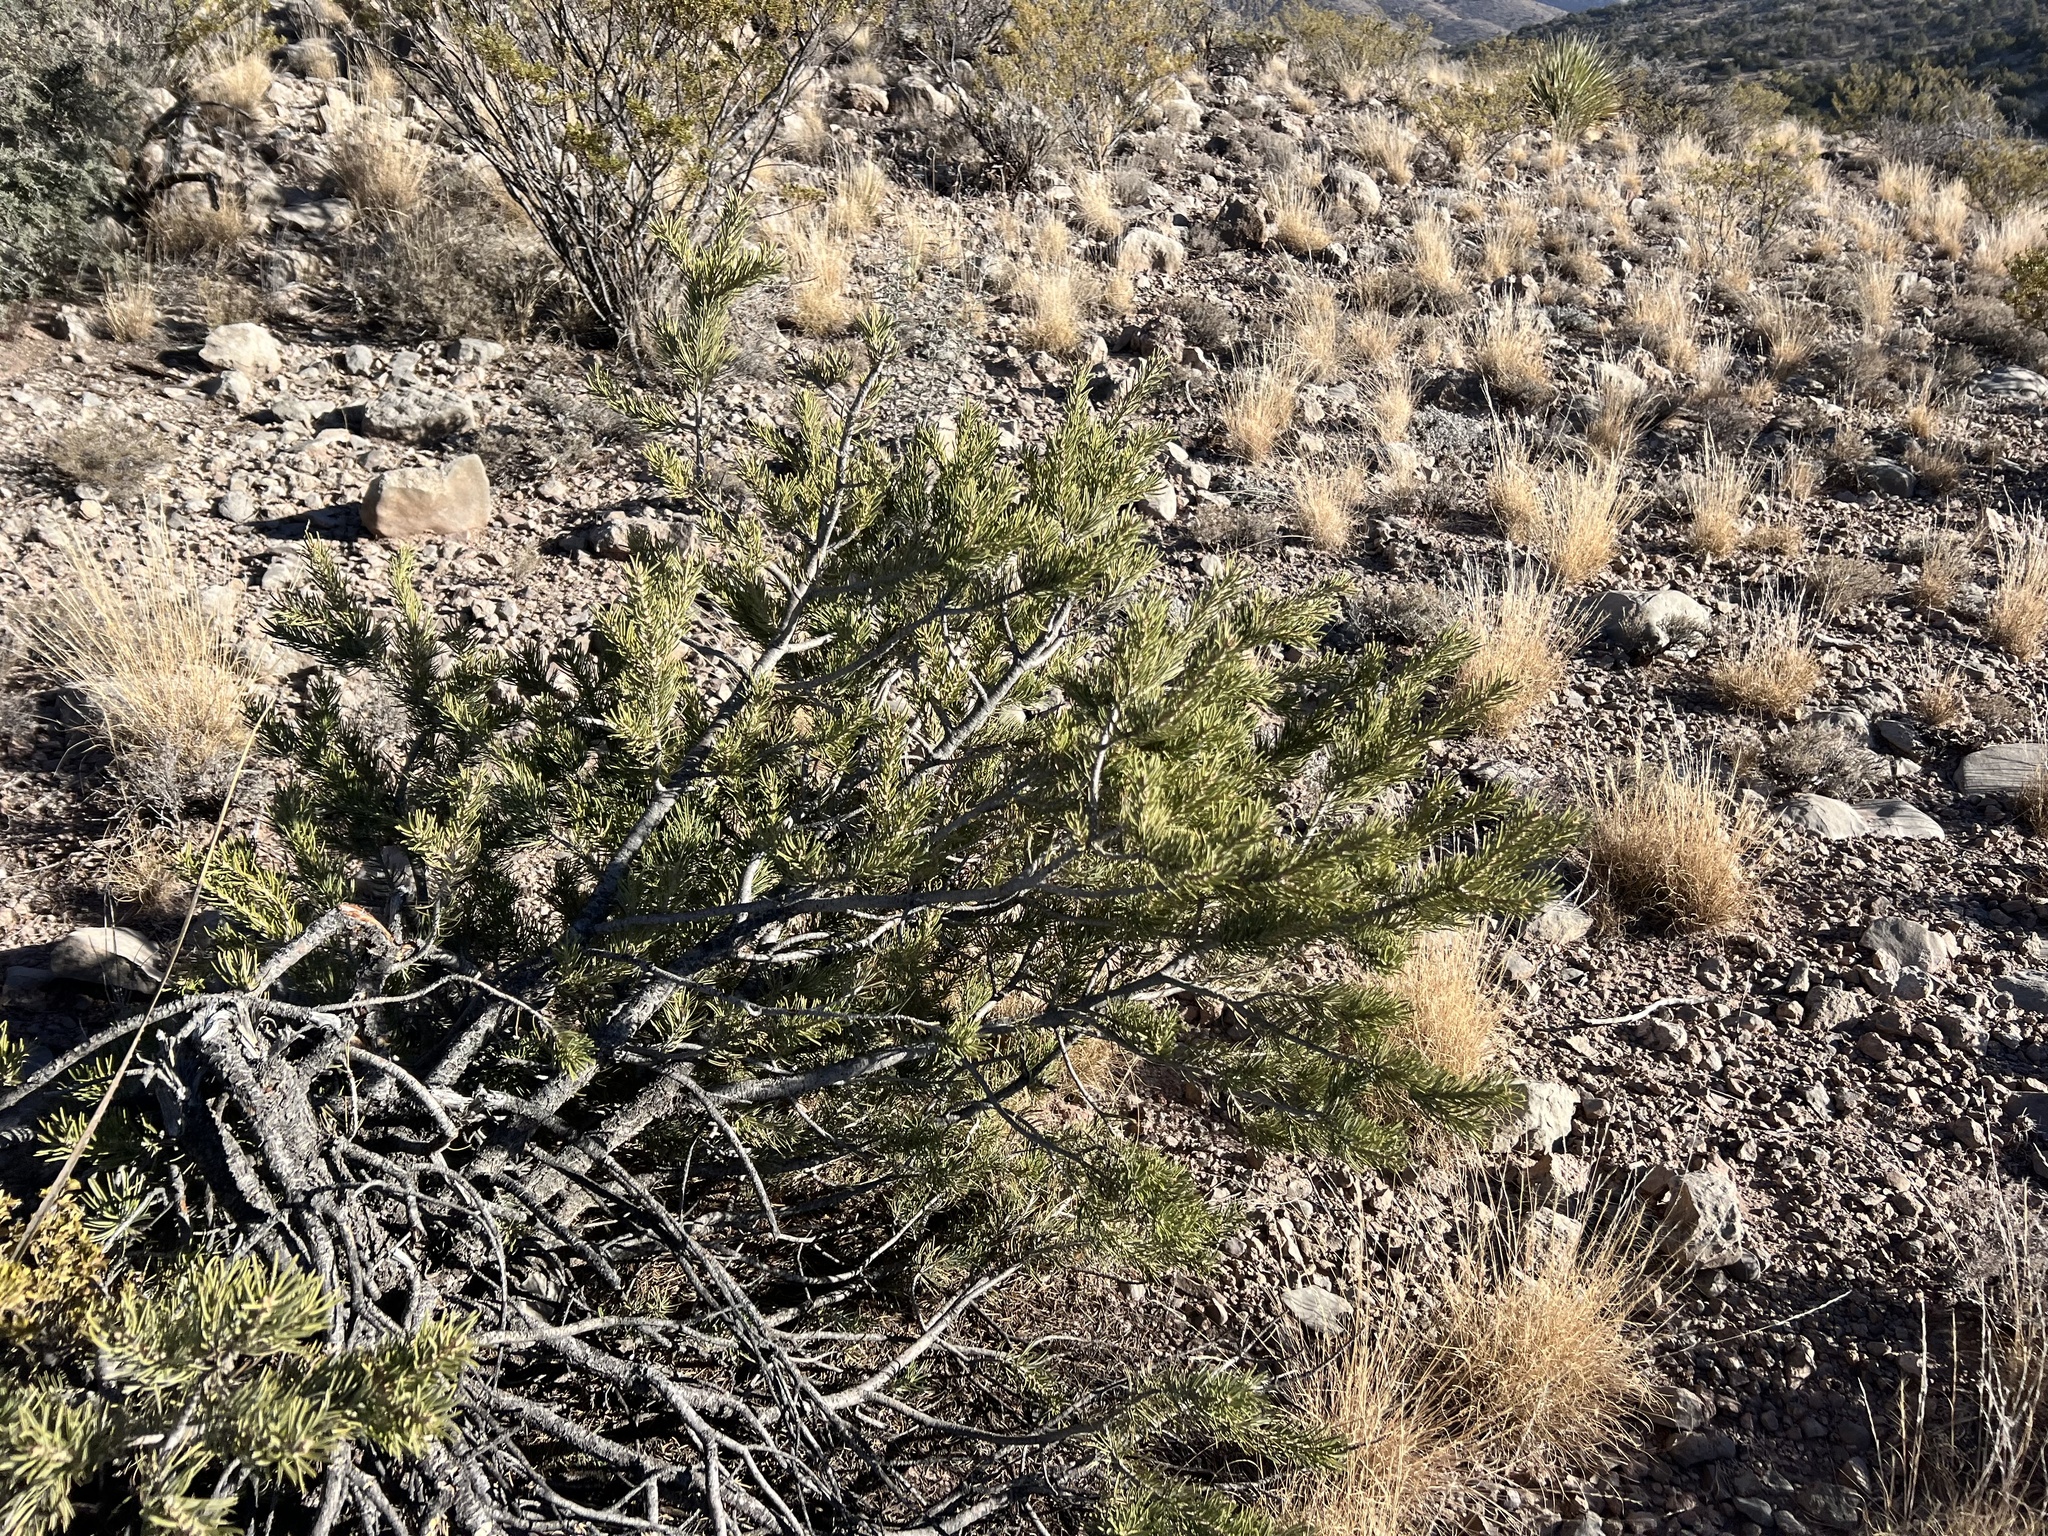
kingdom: Plantae
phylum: Tracheophyta
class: Pinopsida
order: Pinales
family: Pinaceae
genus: Pinus
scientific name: Pinus edulis
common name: Colorado pinyon
